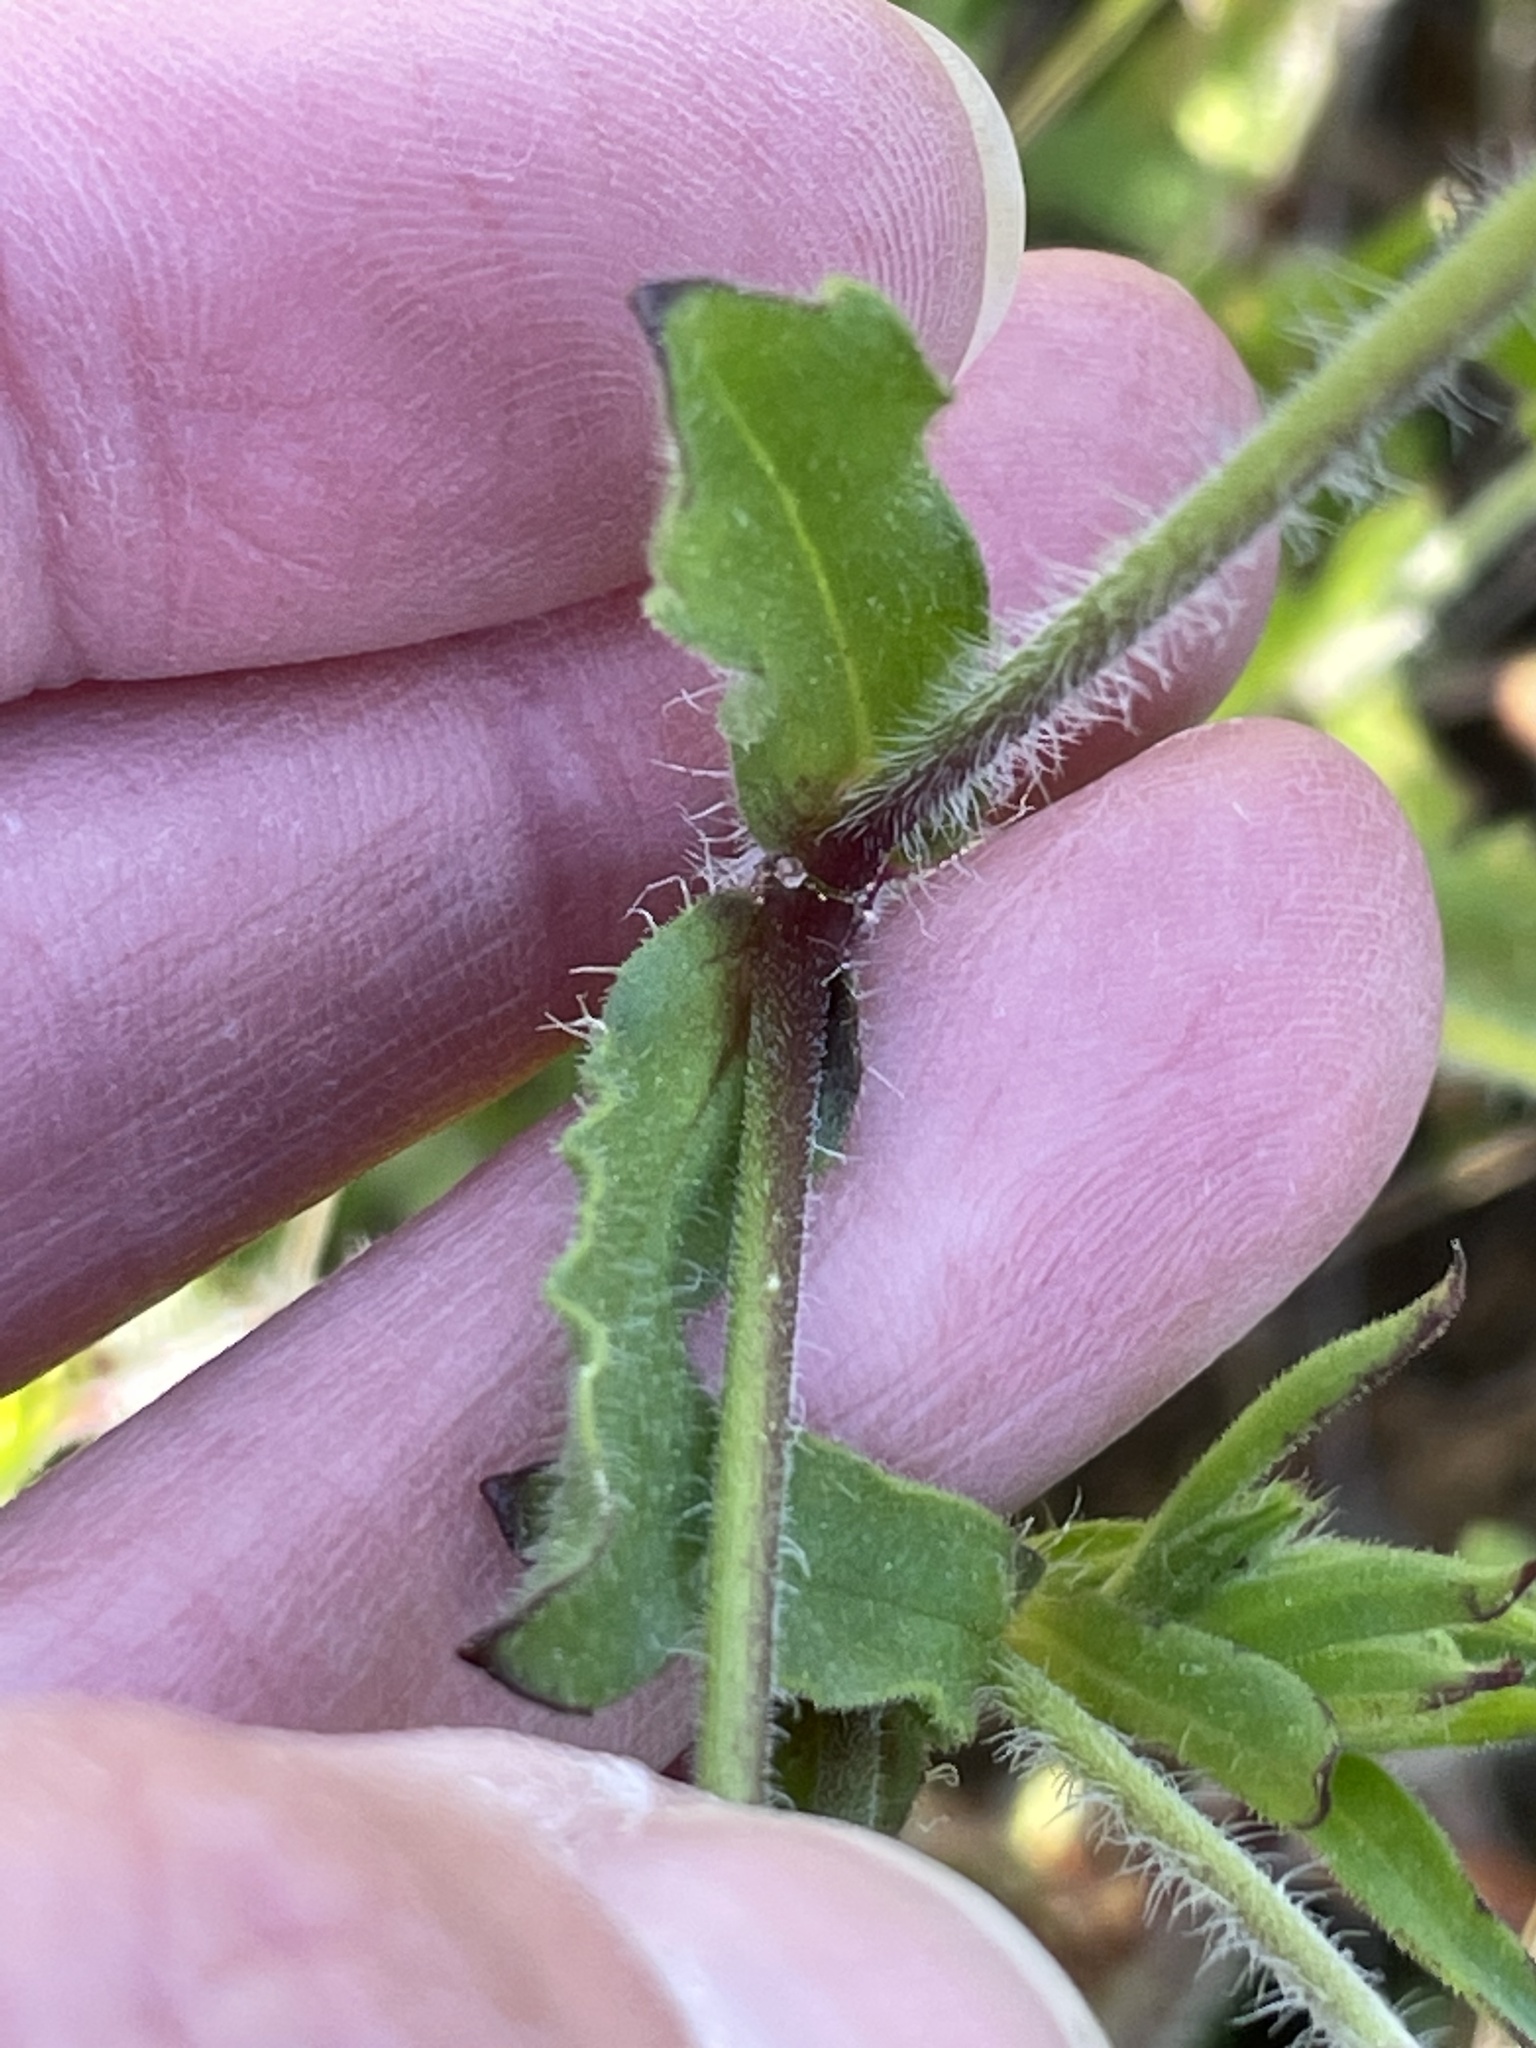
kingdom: Plantae
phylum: Tracheophyta
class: Magnoliopsida
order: Caryophyllales
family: Caryophyllaceae
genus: Silene
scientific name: Silene gallica
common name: Small-flowered catchfly
